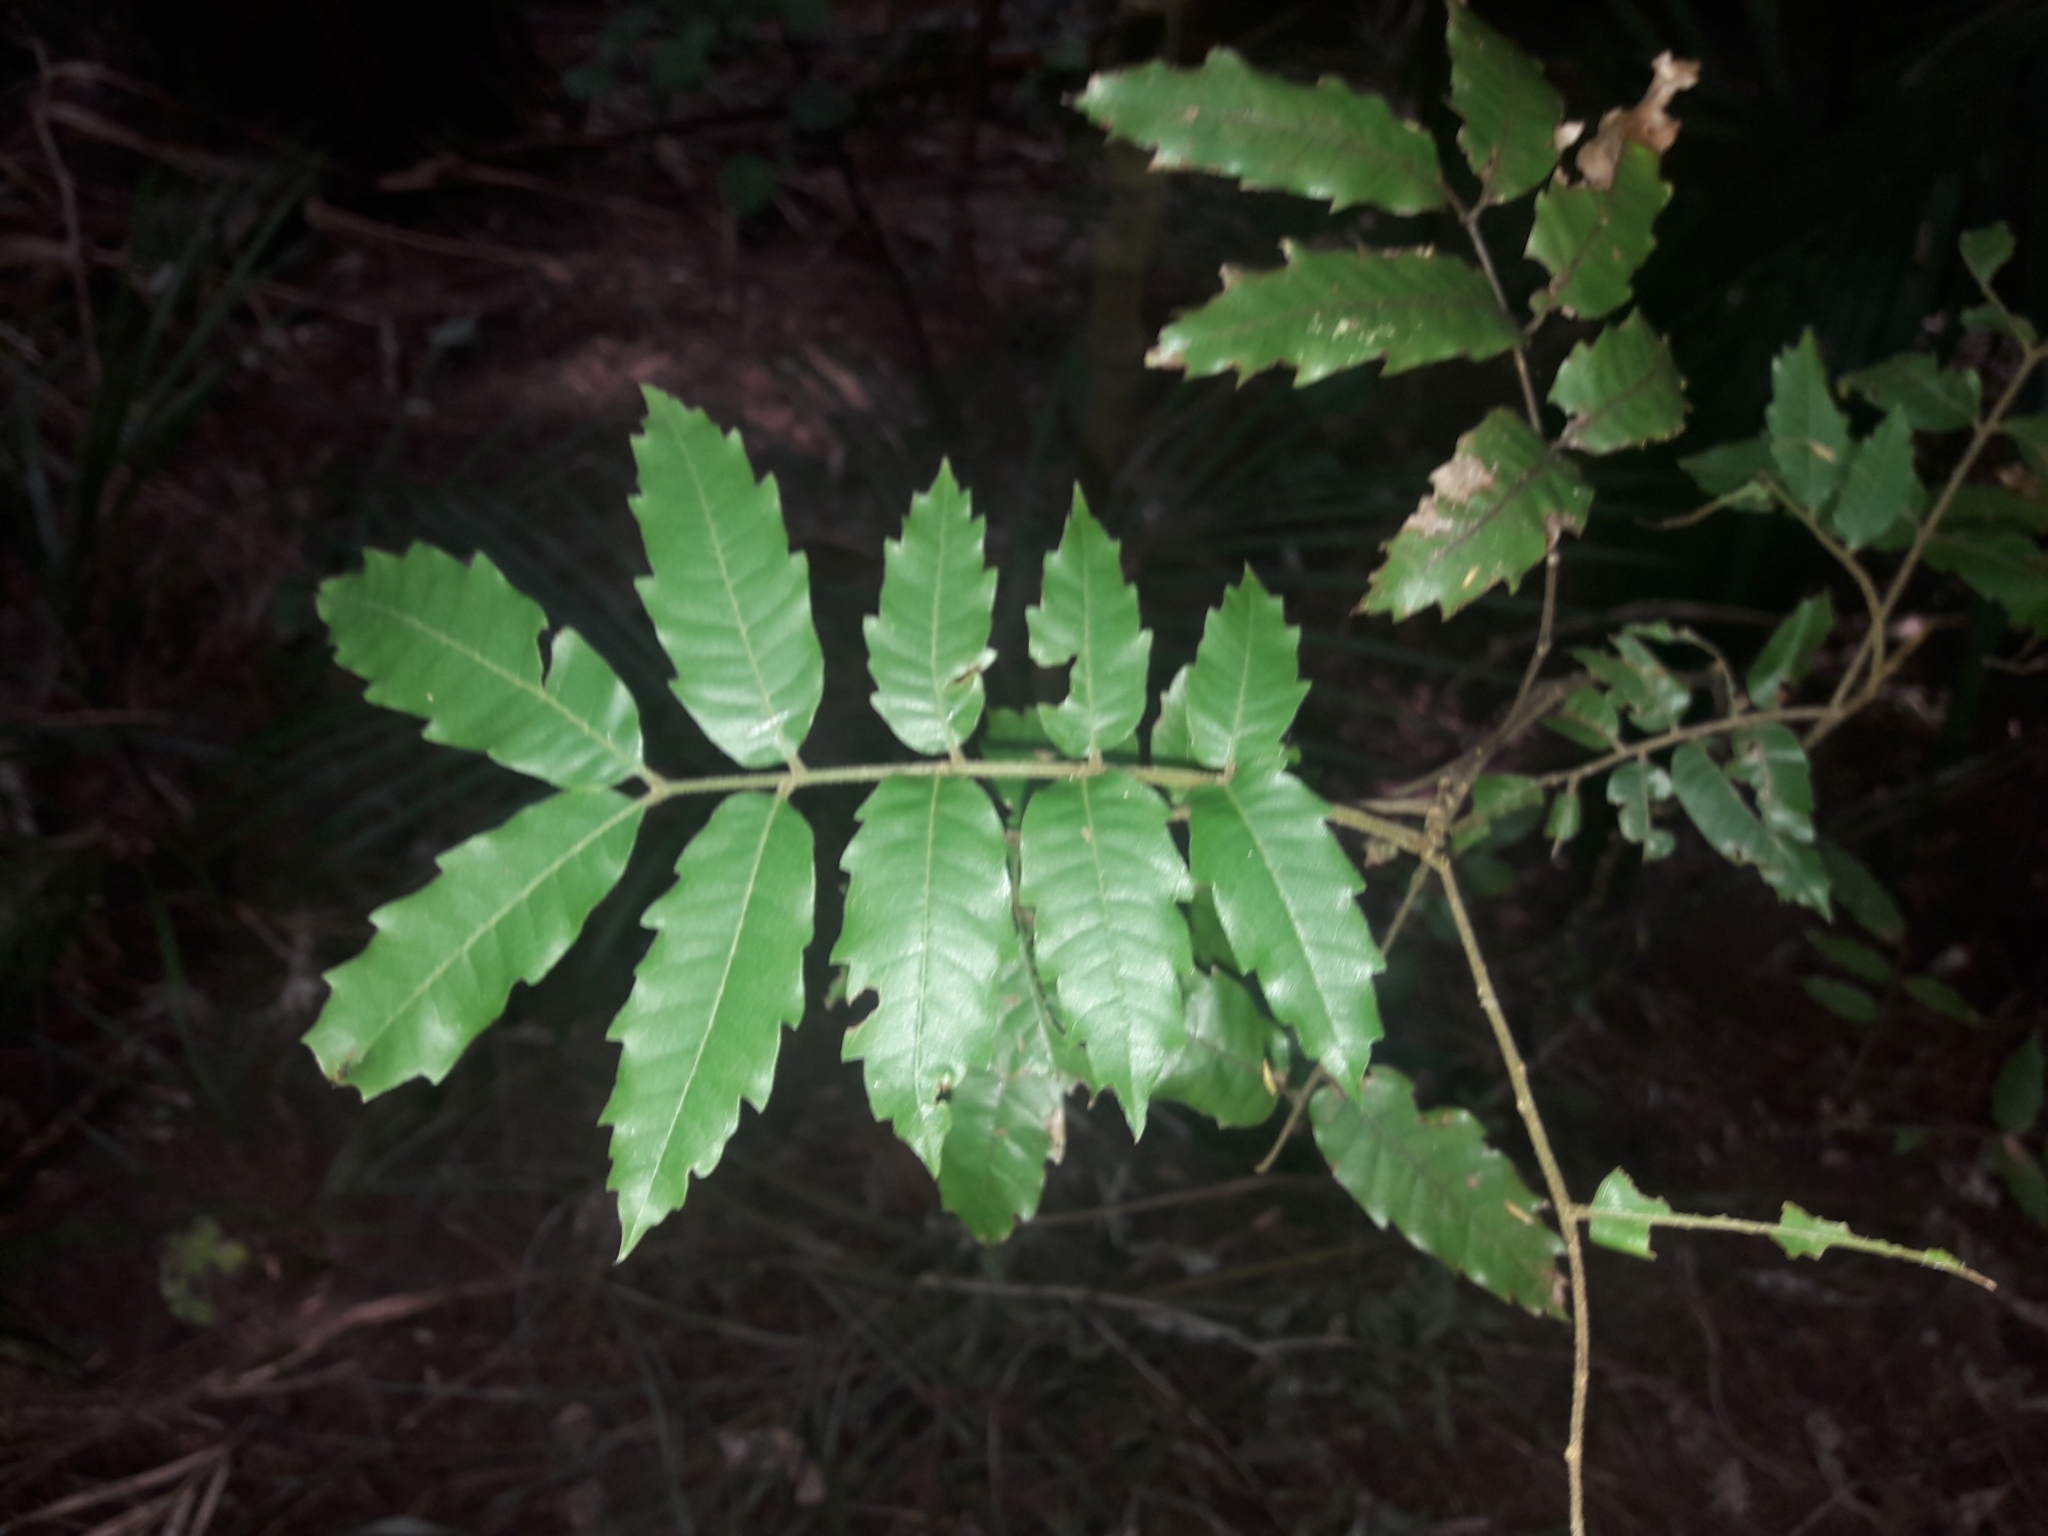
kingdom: Plantae
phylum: Tracheophyta
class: Magnoliopsida
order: Sapindales
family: Sapindaceae
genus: Alectryon
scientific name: Alectryon excelsus
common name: Three kings titoki
